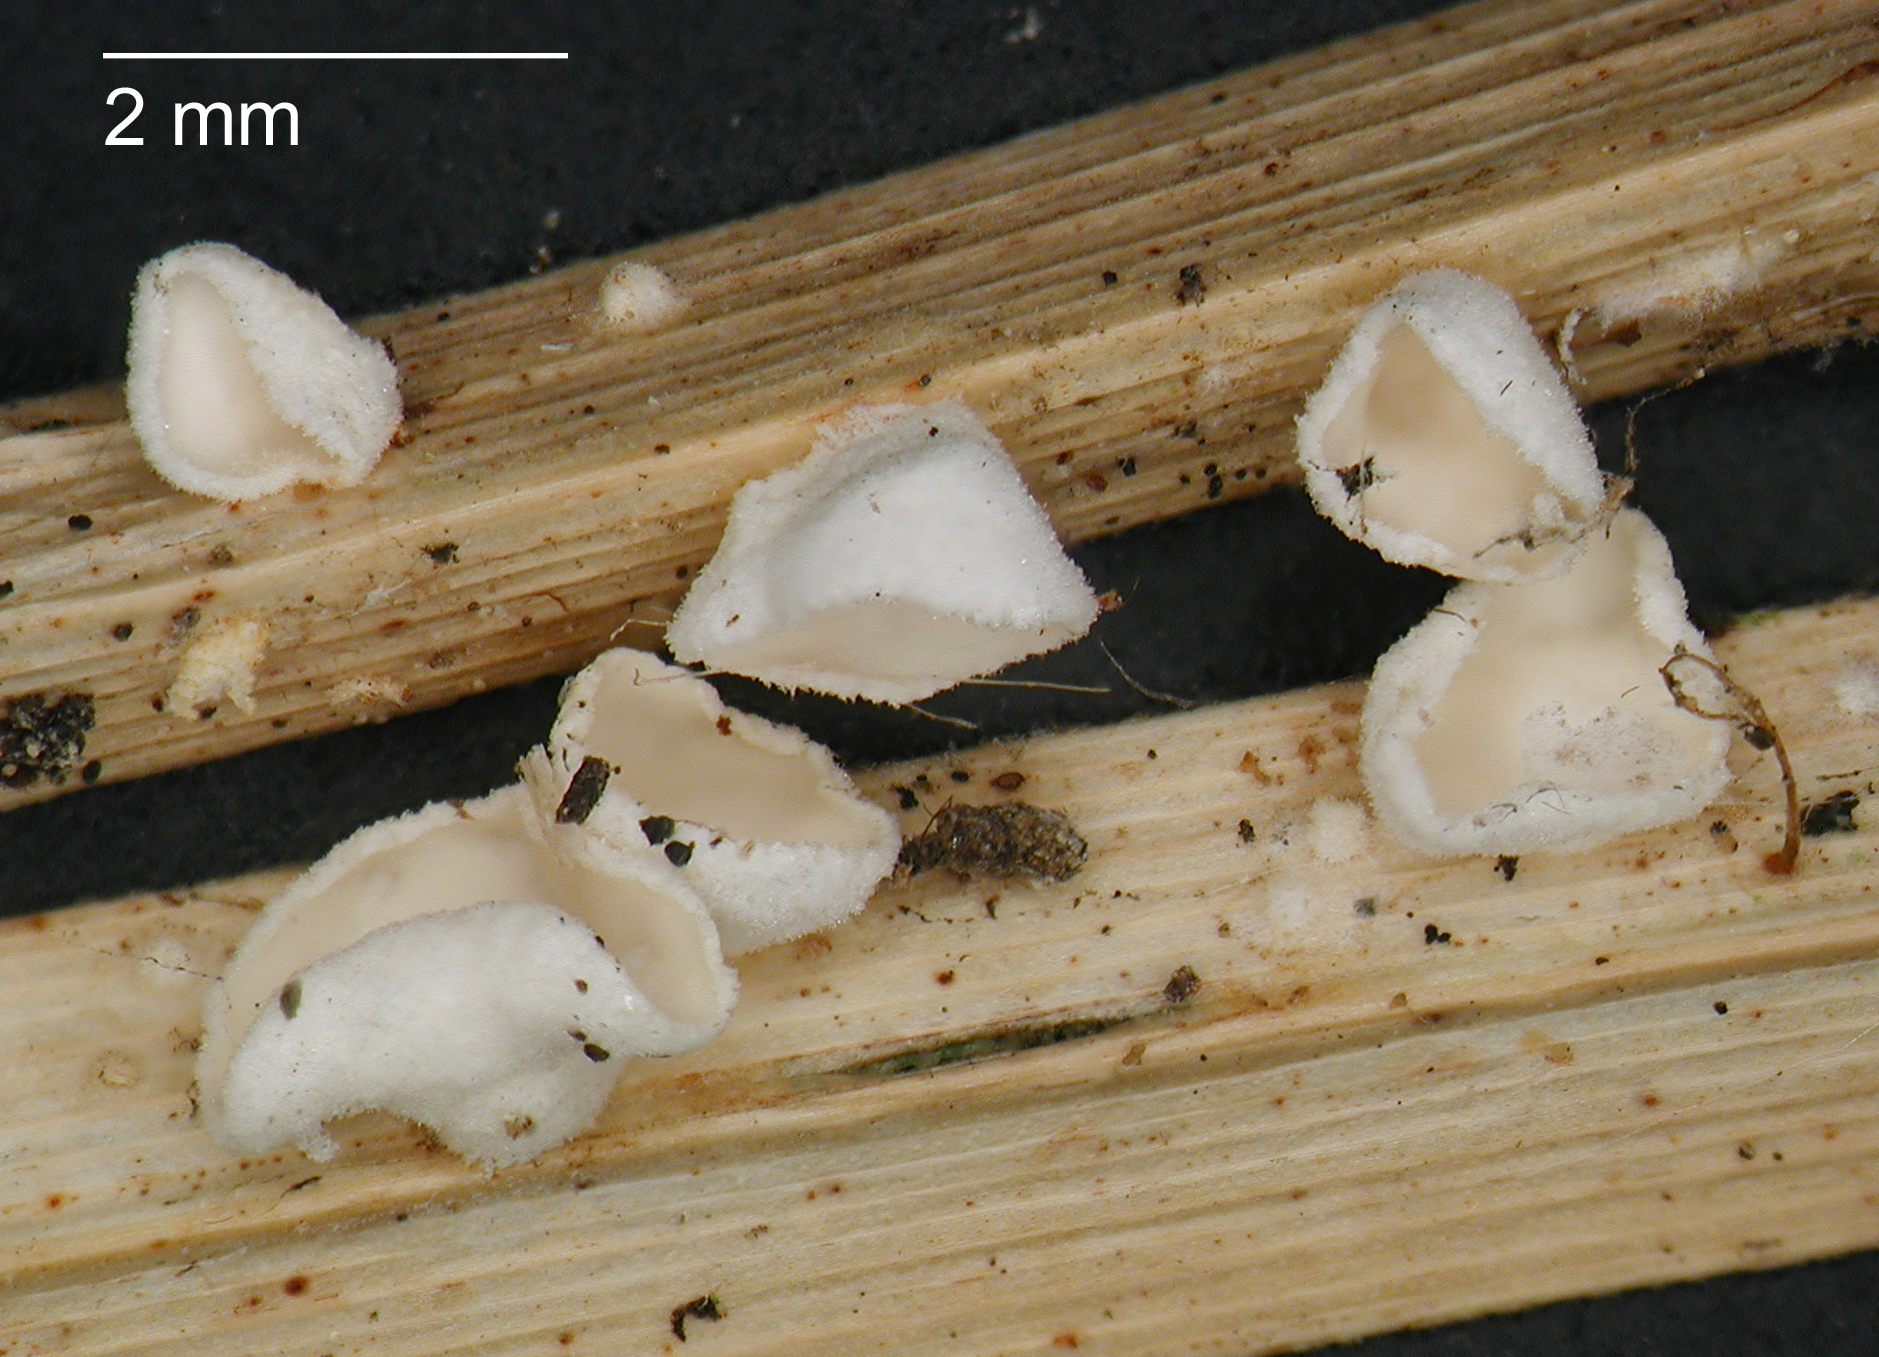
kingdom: Fungi
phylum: Basidiomycota
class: Agaricomycetes
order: Agaricales
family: Tricholomataceae
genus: Cellypha
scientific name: Cellypha goldbachii
